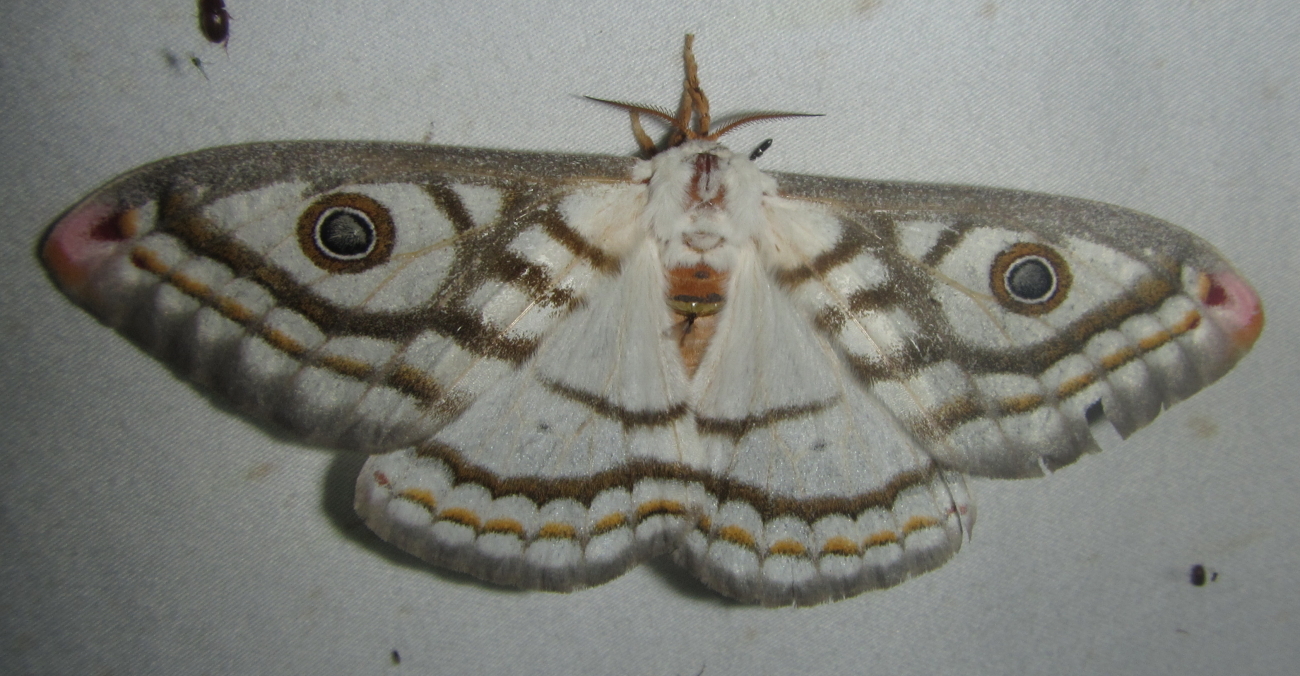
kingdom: Animalia
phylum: Arthropoda
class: Insecta
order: Lepidoptera
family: Saturniidae
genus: Heniocha
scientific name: Heniocha marnois
